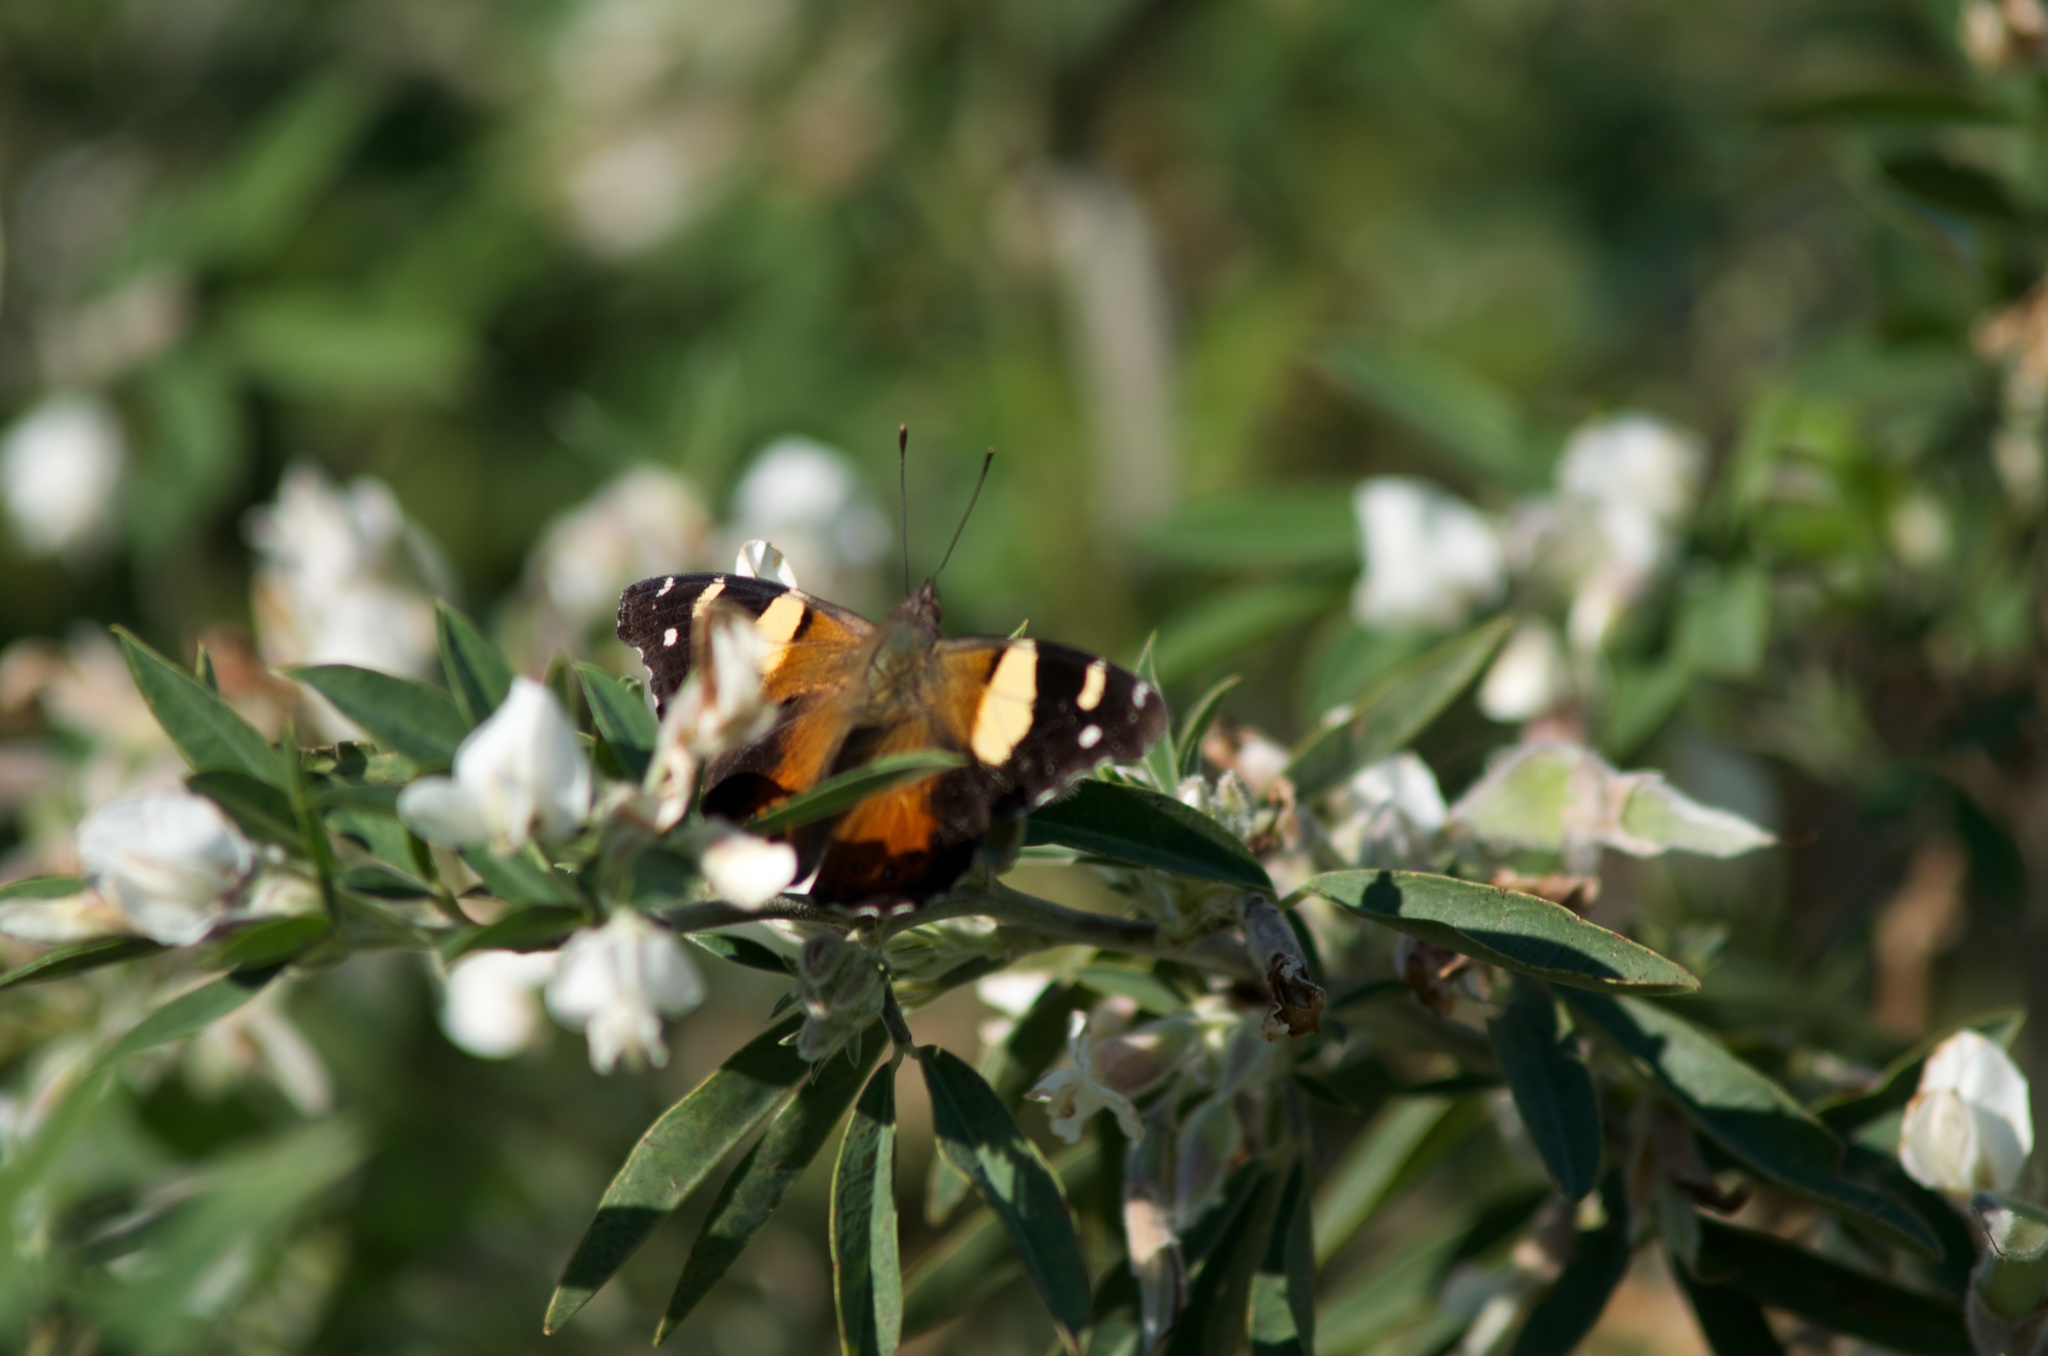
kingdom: Animalia
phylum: Arthropoda
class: Insecta
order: Lepidoptera
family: Nymphalidae
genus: Vanessa
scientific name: Vanessa itea
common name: Yellow admiral
